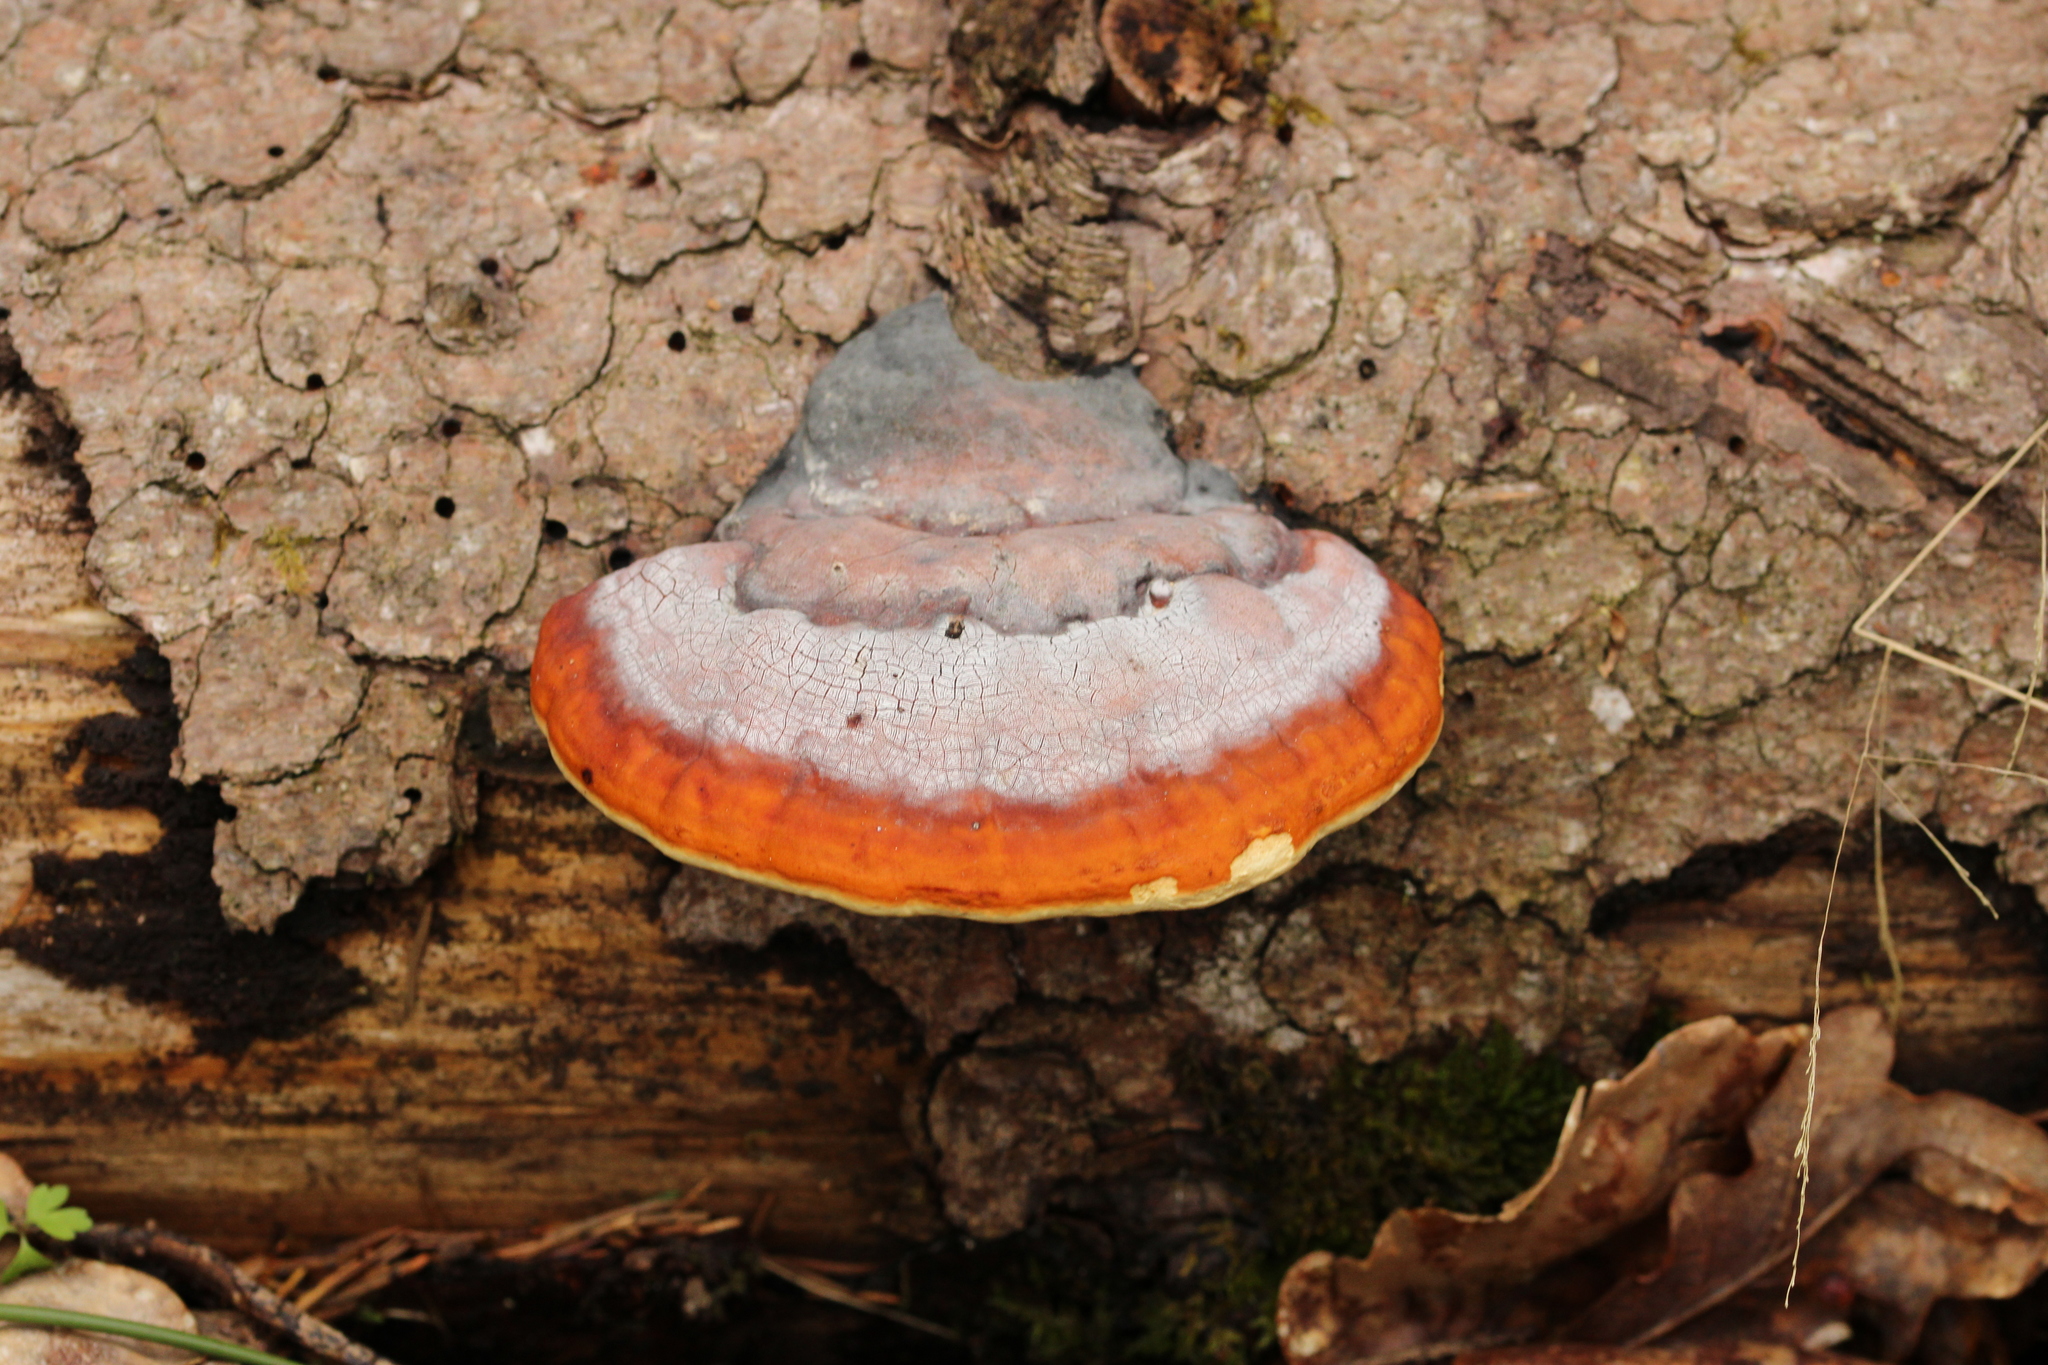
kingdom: Fungi
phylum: Basidiomycota
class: Agaricomycetes
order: Polyporales
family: Fomitopsidaceae
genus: Fomitopsis
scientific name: Fomitopsis pinicola
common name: Red-belted bracket
